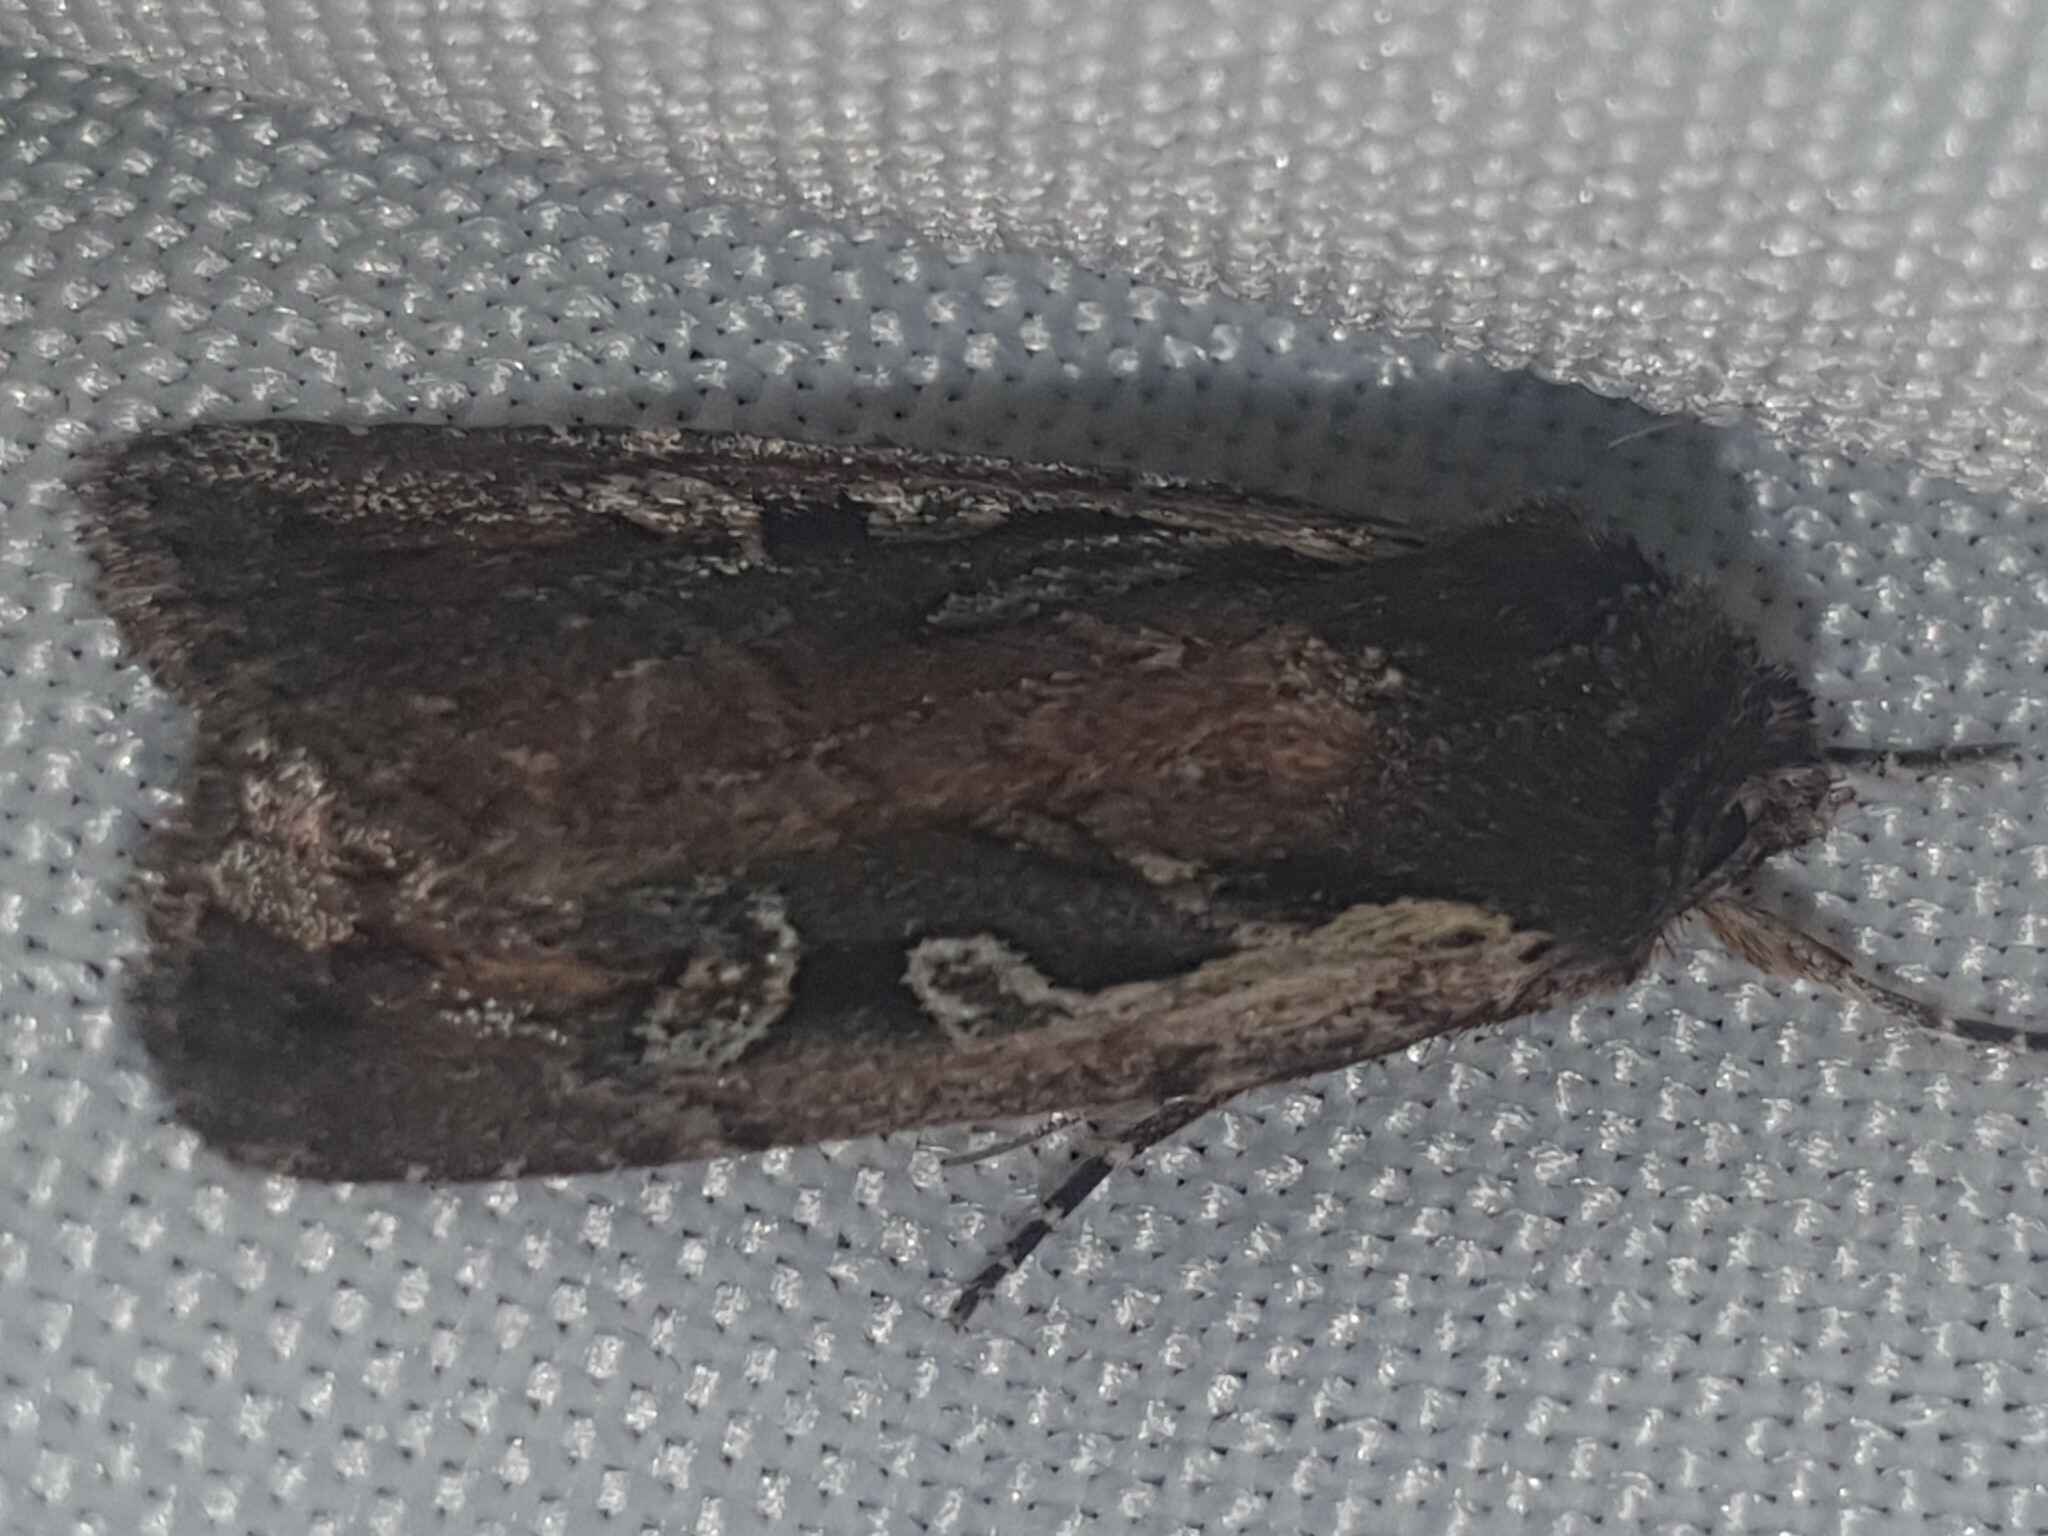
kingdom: Animalia
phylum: Arthropoda
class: Insecta
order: Lepidoptera
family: Noctuidae
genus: Xestia
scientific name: Xestia agathina
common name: Heath rustic
